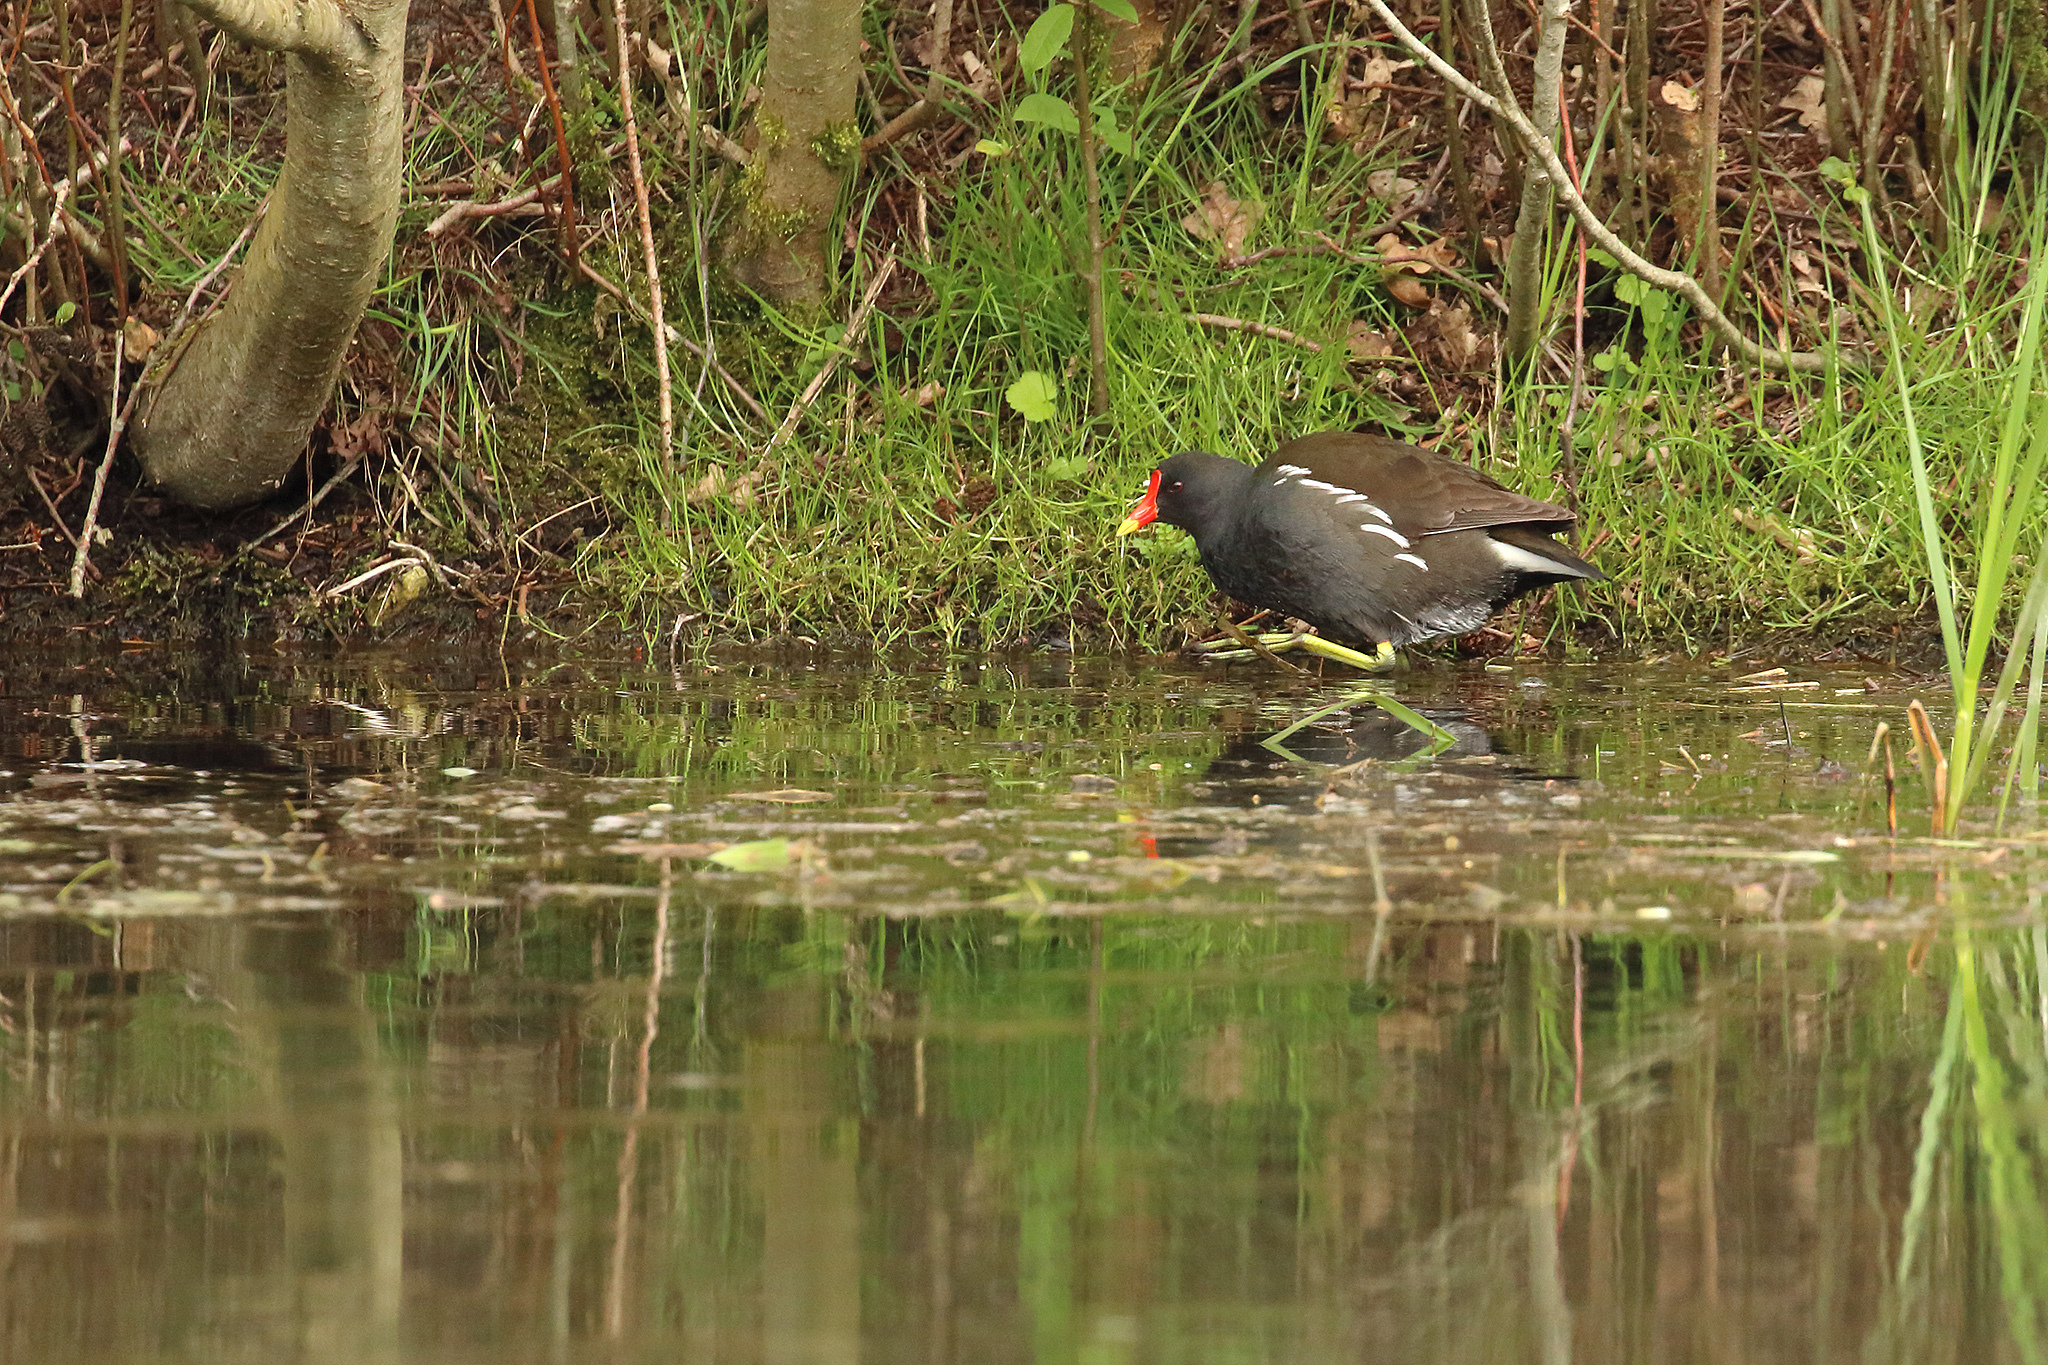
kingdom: Animalia
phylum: Chordata
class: Aves
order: Gruiformes
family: Rallidae
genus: Gallinula
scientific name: Gallinula chloropus
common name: Common moorhen
